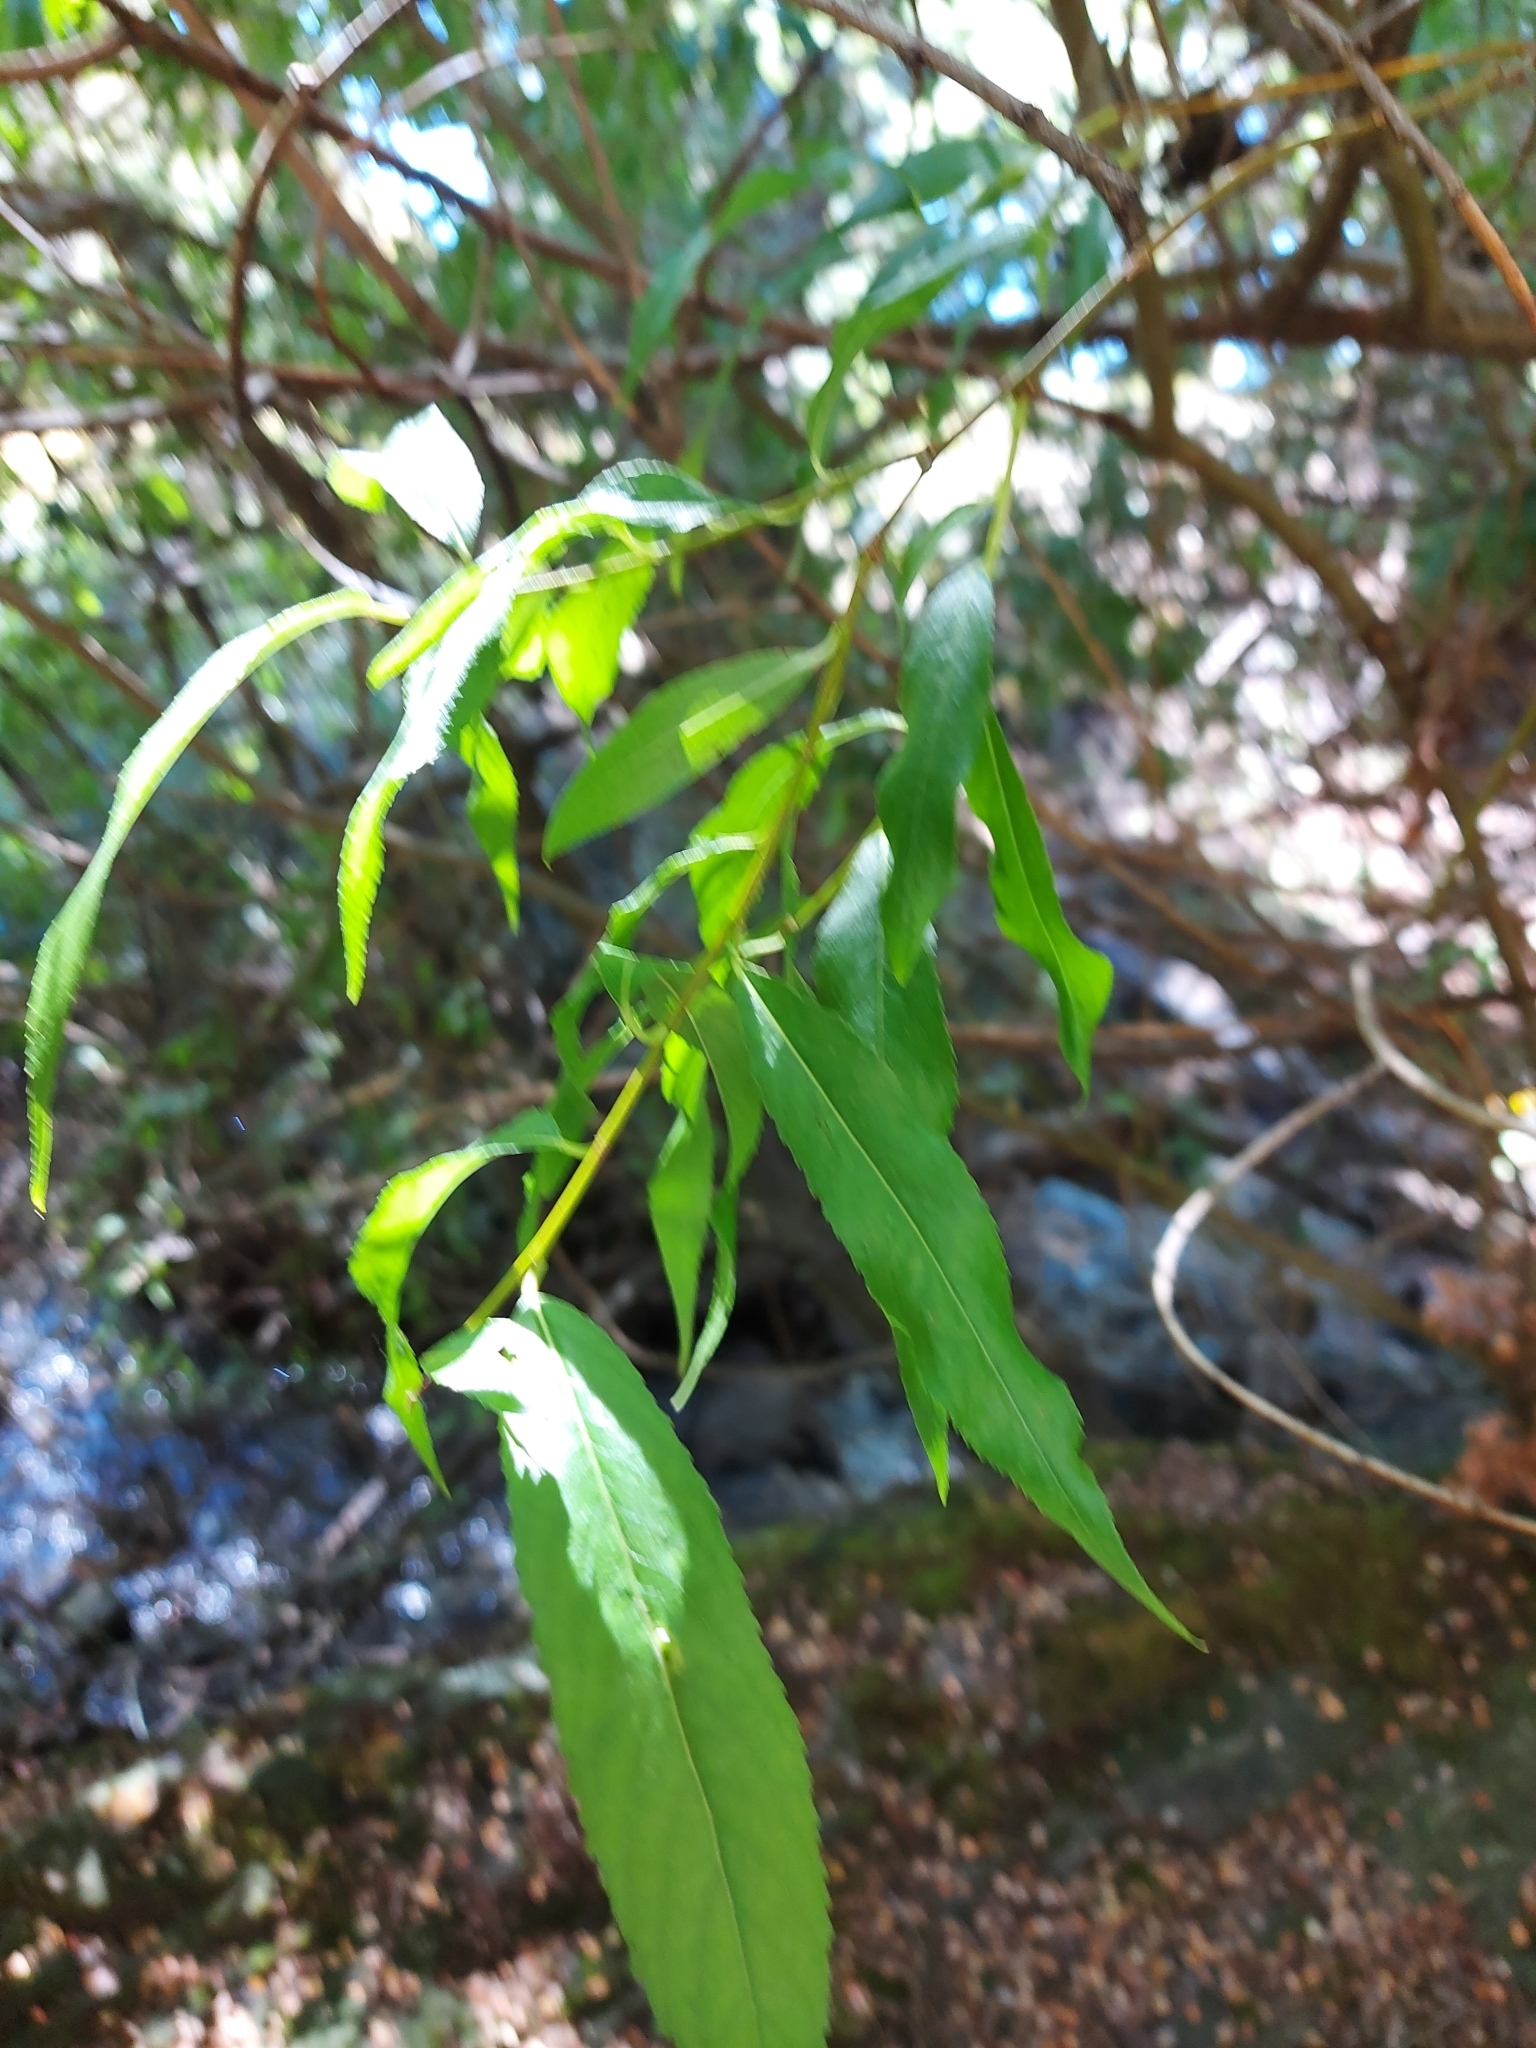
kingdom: Plantae
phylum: Tracheophyta
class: Magnoliopsida
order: Malpighiales
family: Salicaceae
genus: Salix
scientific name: Salix fragilis
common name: Crack willow
